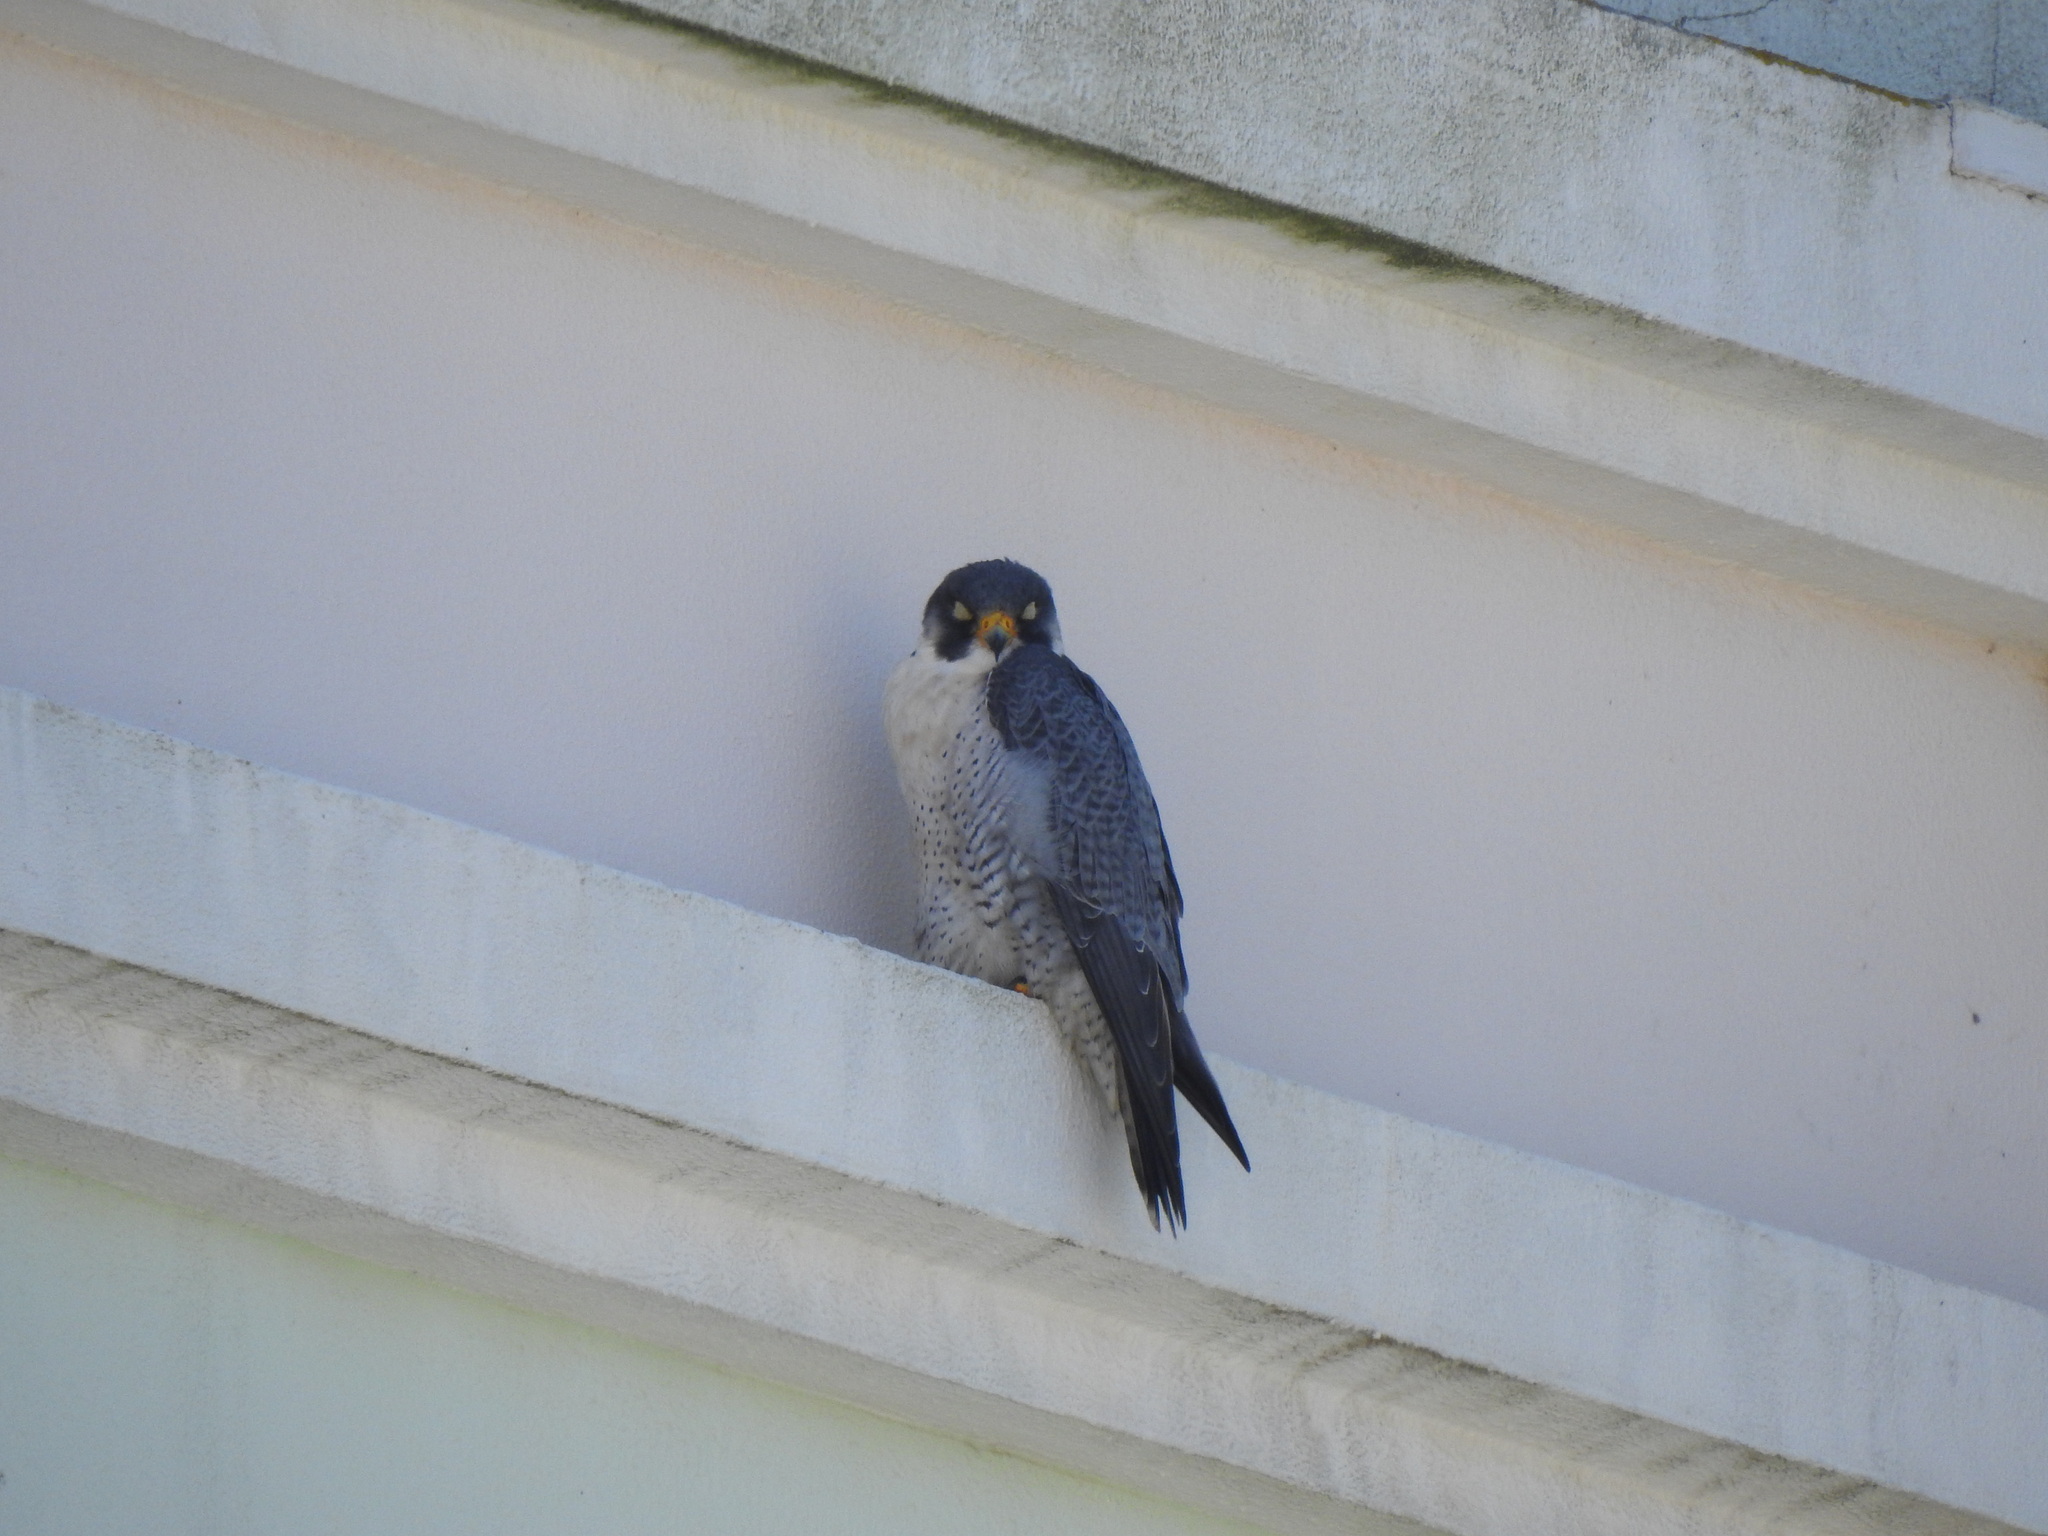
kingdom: Animalia
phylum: Chordata
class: Aves
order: Falconiformes
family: Falconidae
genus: Falco
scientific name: Falco peregrinus
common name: Peregrine falcon
